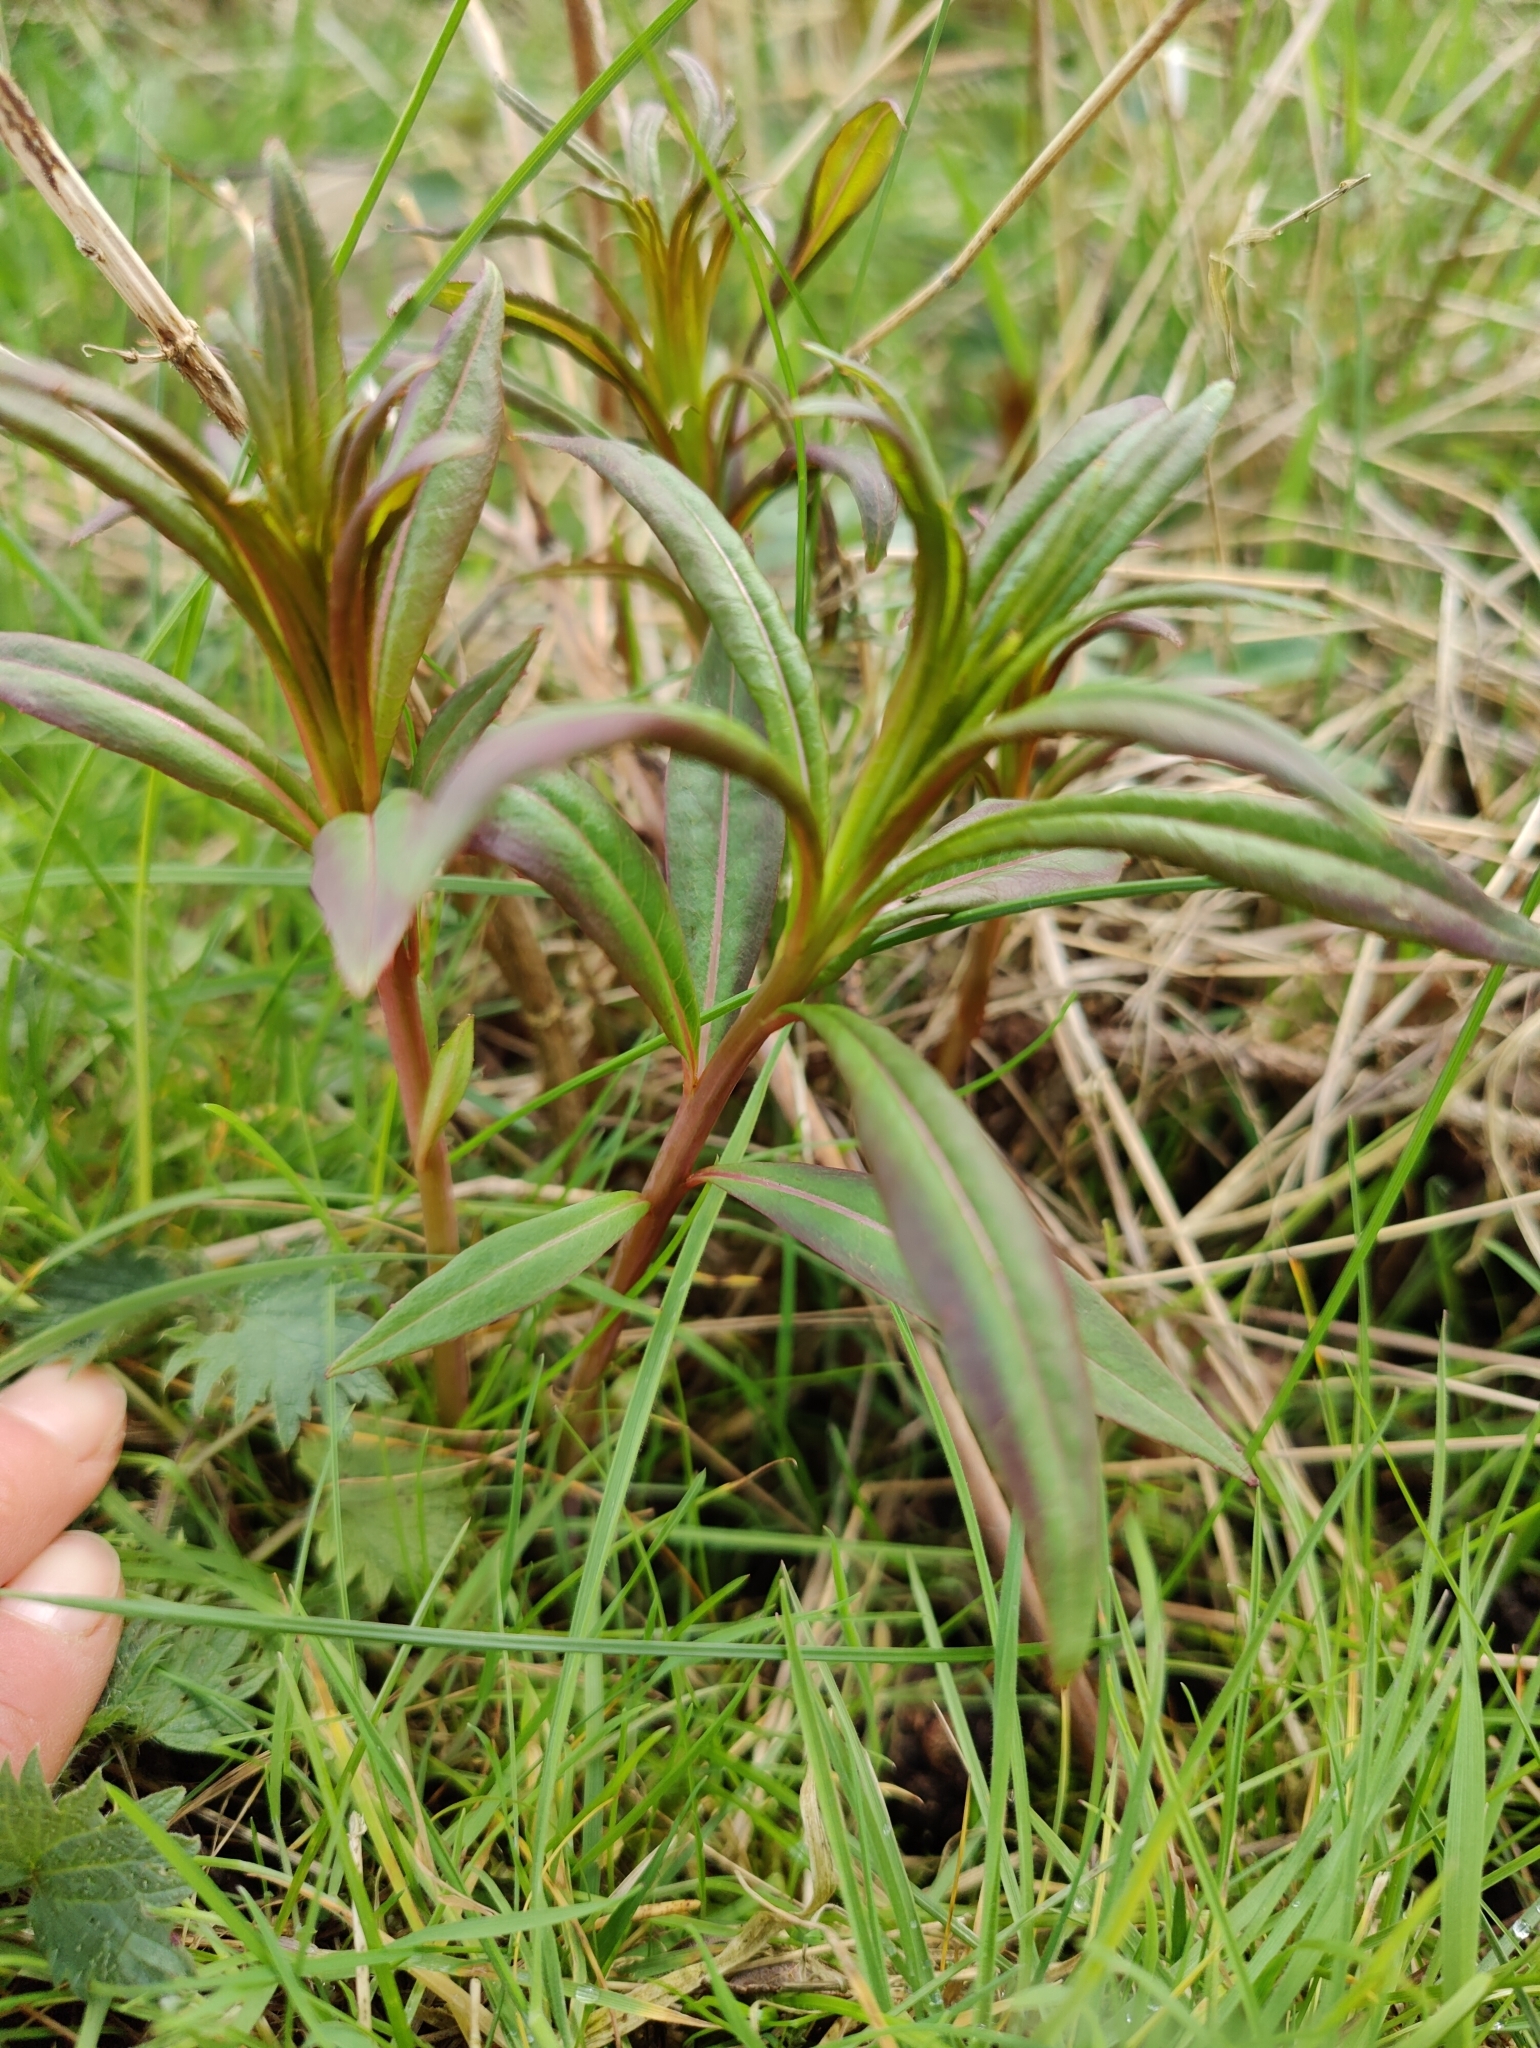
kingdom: Plantae
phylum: Tracheophyta
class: Magnoliopsida
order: Myrtales
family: Onagraceae
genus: Chamaenerion
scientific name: Chamaenerion angustifolium
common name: Fireweed
